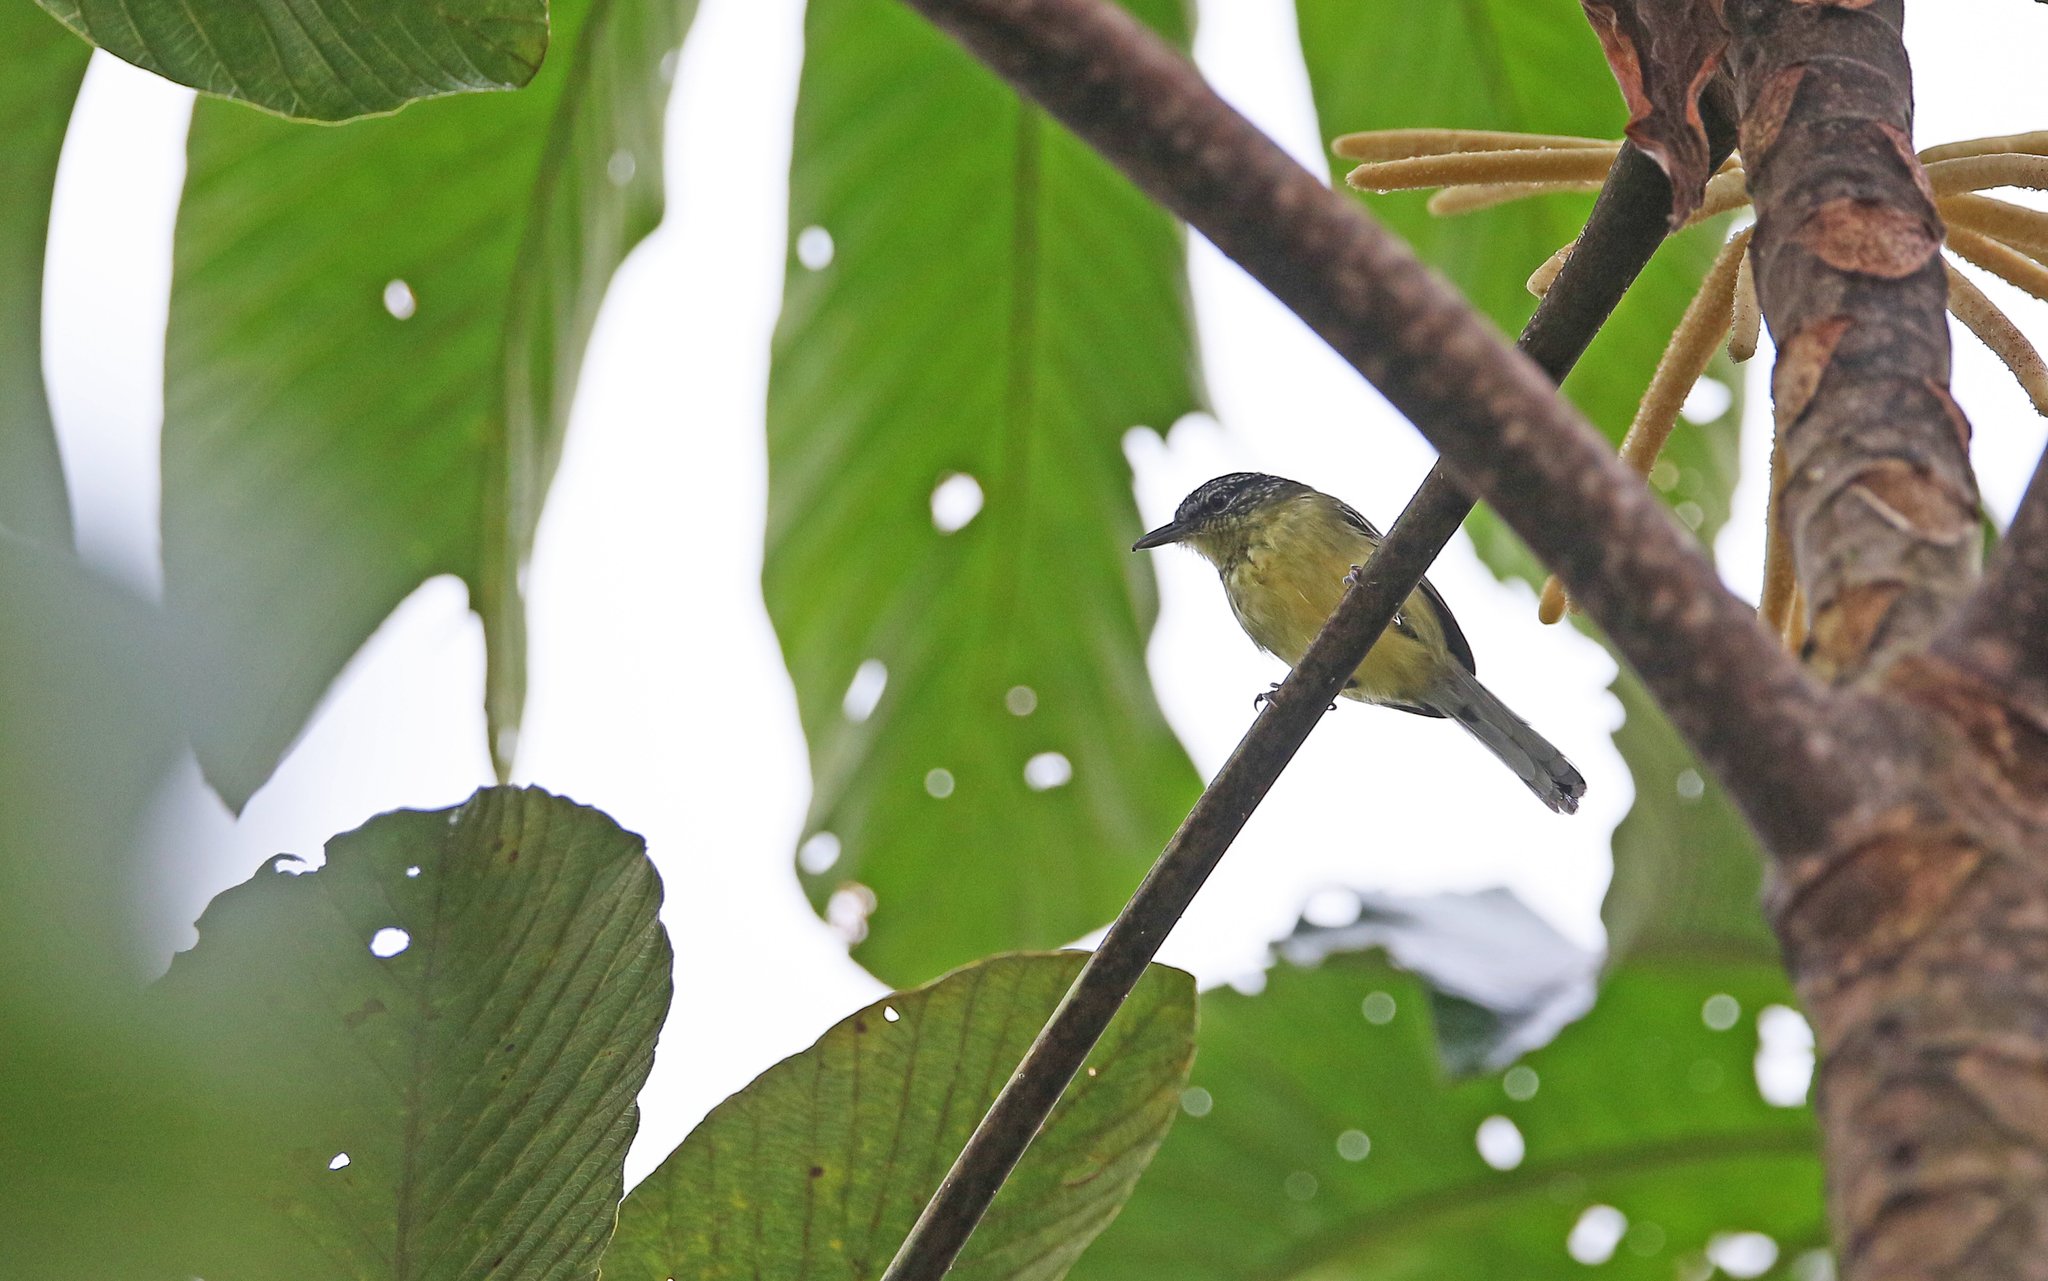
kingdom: Animalia
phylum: Chordata
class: Aves
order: Passeriformes
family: Thamnophilidae
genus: Herpsilochmus
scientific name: Herpsilochmus axillaris
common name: Yellow-breasted antwren
